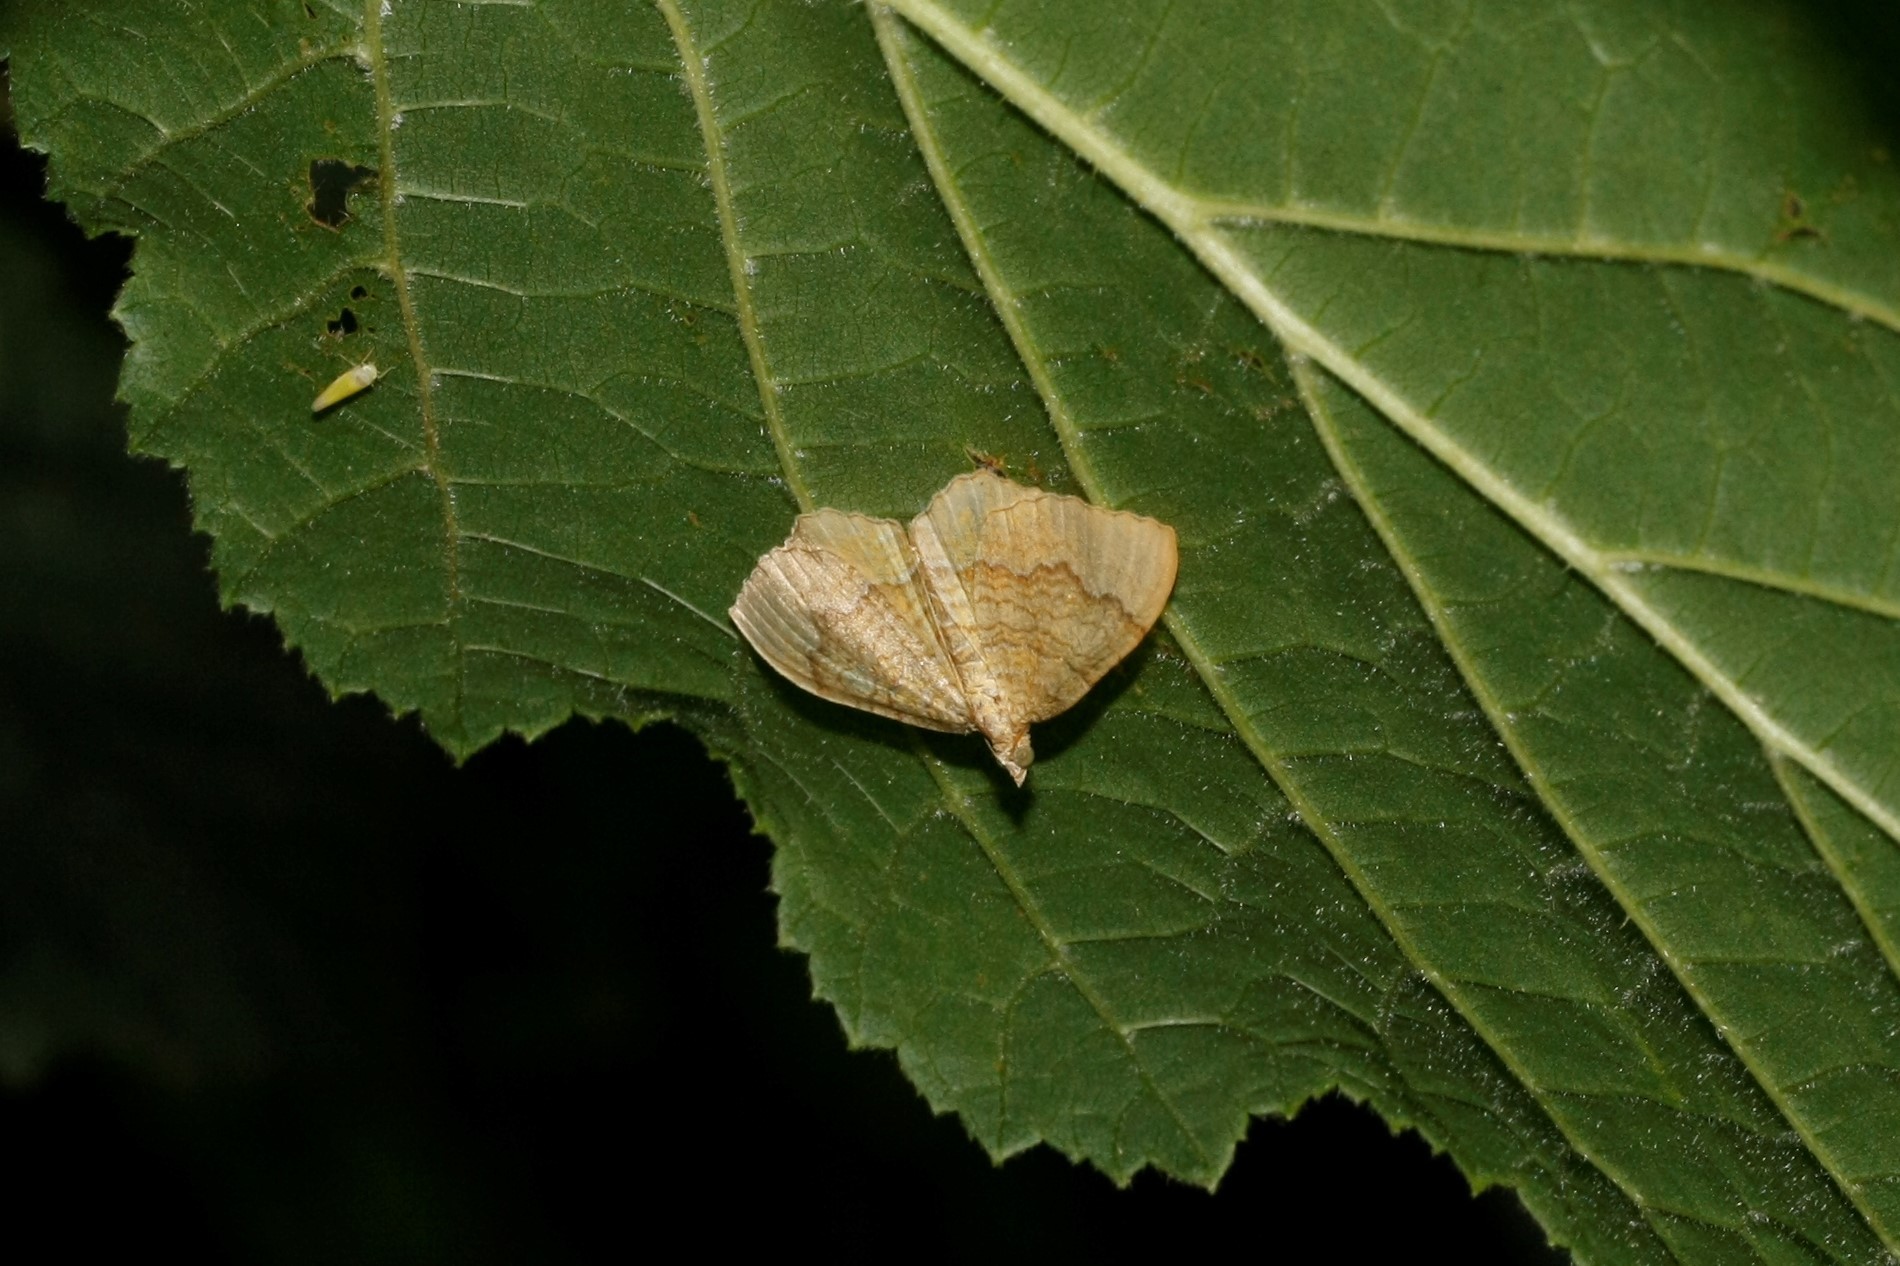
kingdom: Animalia
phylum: Arthropoda
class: Insecta
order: Lepidoptera
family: Geometridae
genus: Camptogramma
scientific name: Camptogramma bilineata
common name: Yellow shell
